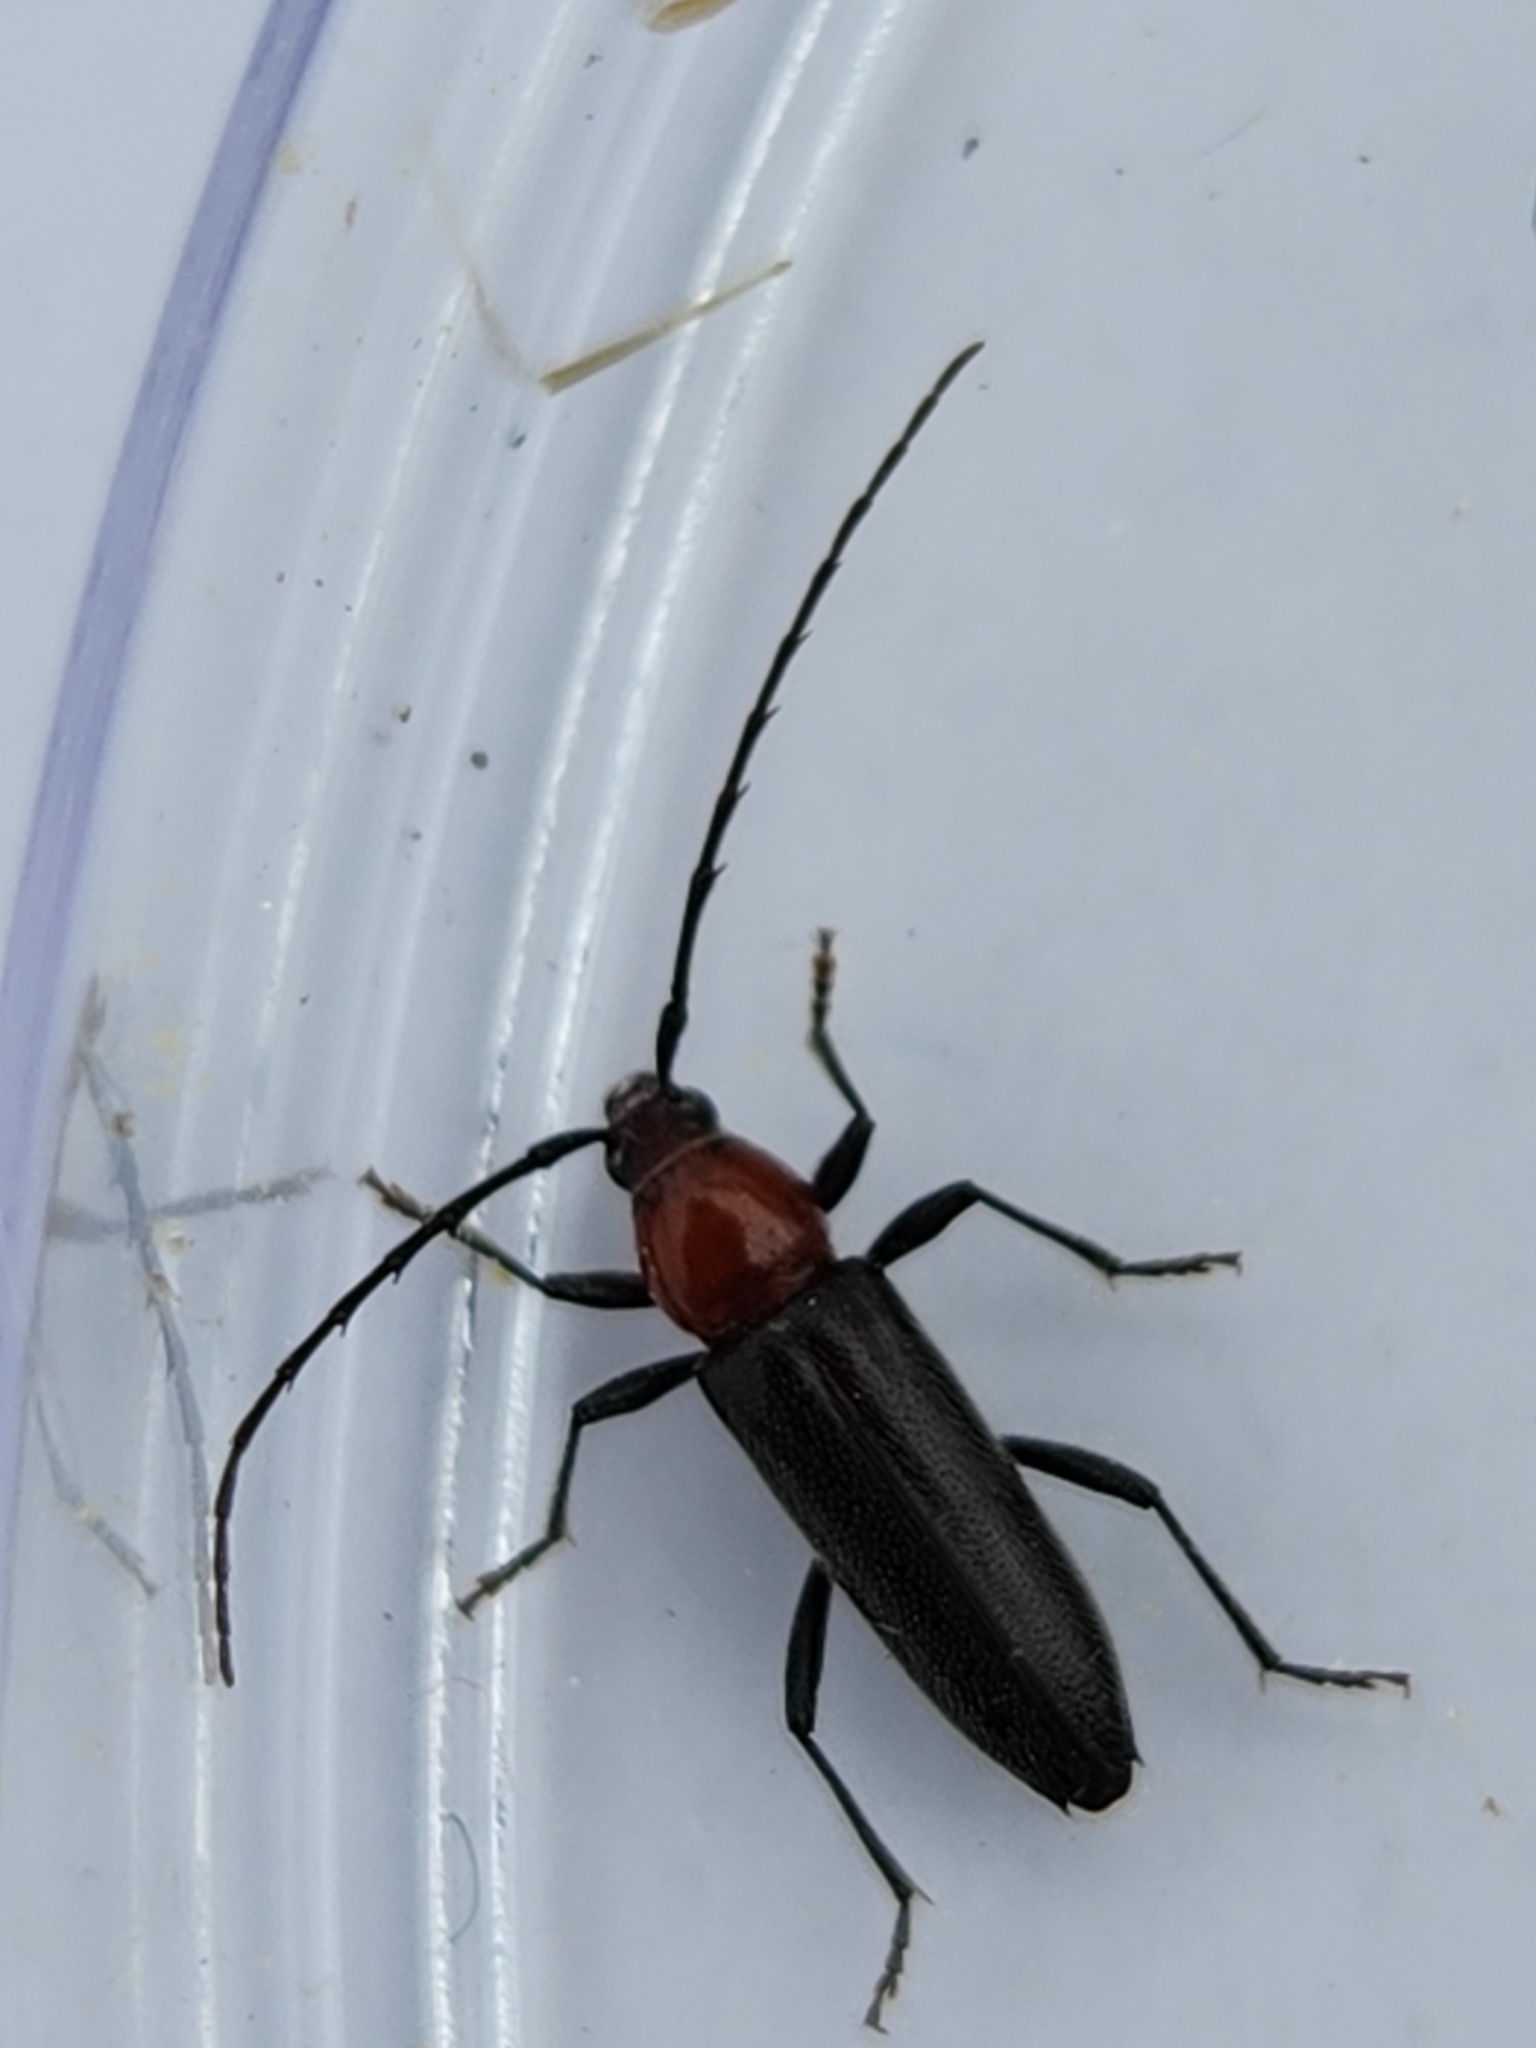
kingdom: Animalia
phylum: Arthropoda
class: Insecta
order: Coleoptera
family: Cerambycidae
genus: Stenosphenus
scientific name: Stenosphenus dolosus
